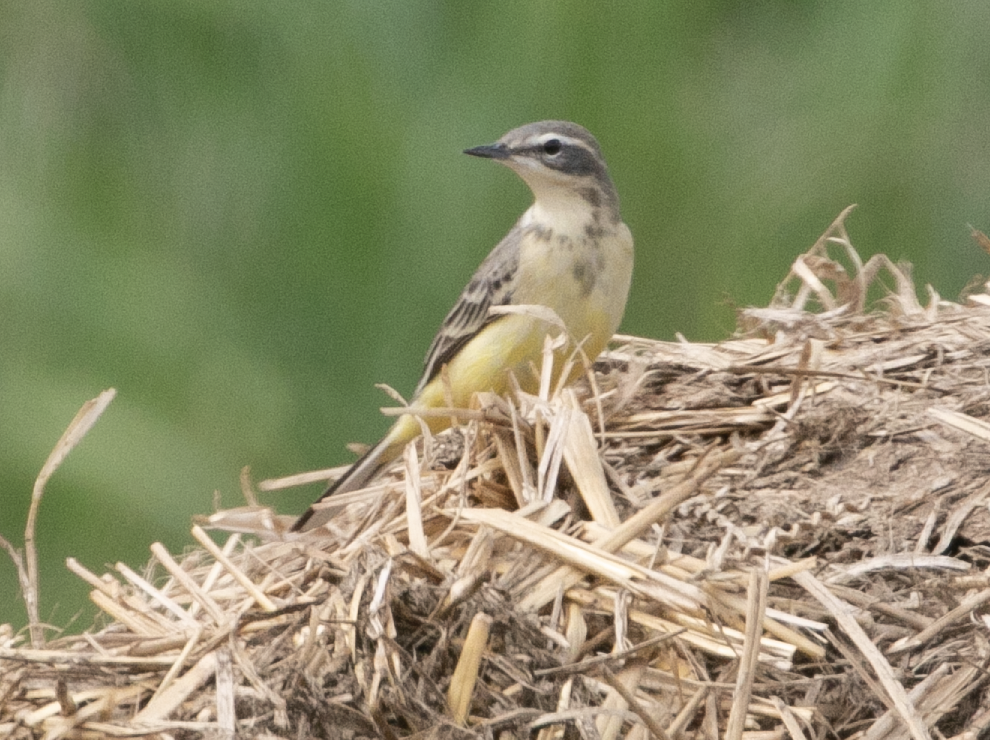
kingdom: Animalia
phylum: Chordata
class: Aves
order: Passeriformes
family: Motacillidae
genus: Motacilla
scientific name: Motacilla flava
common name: Western yellow wagtail
